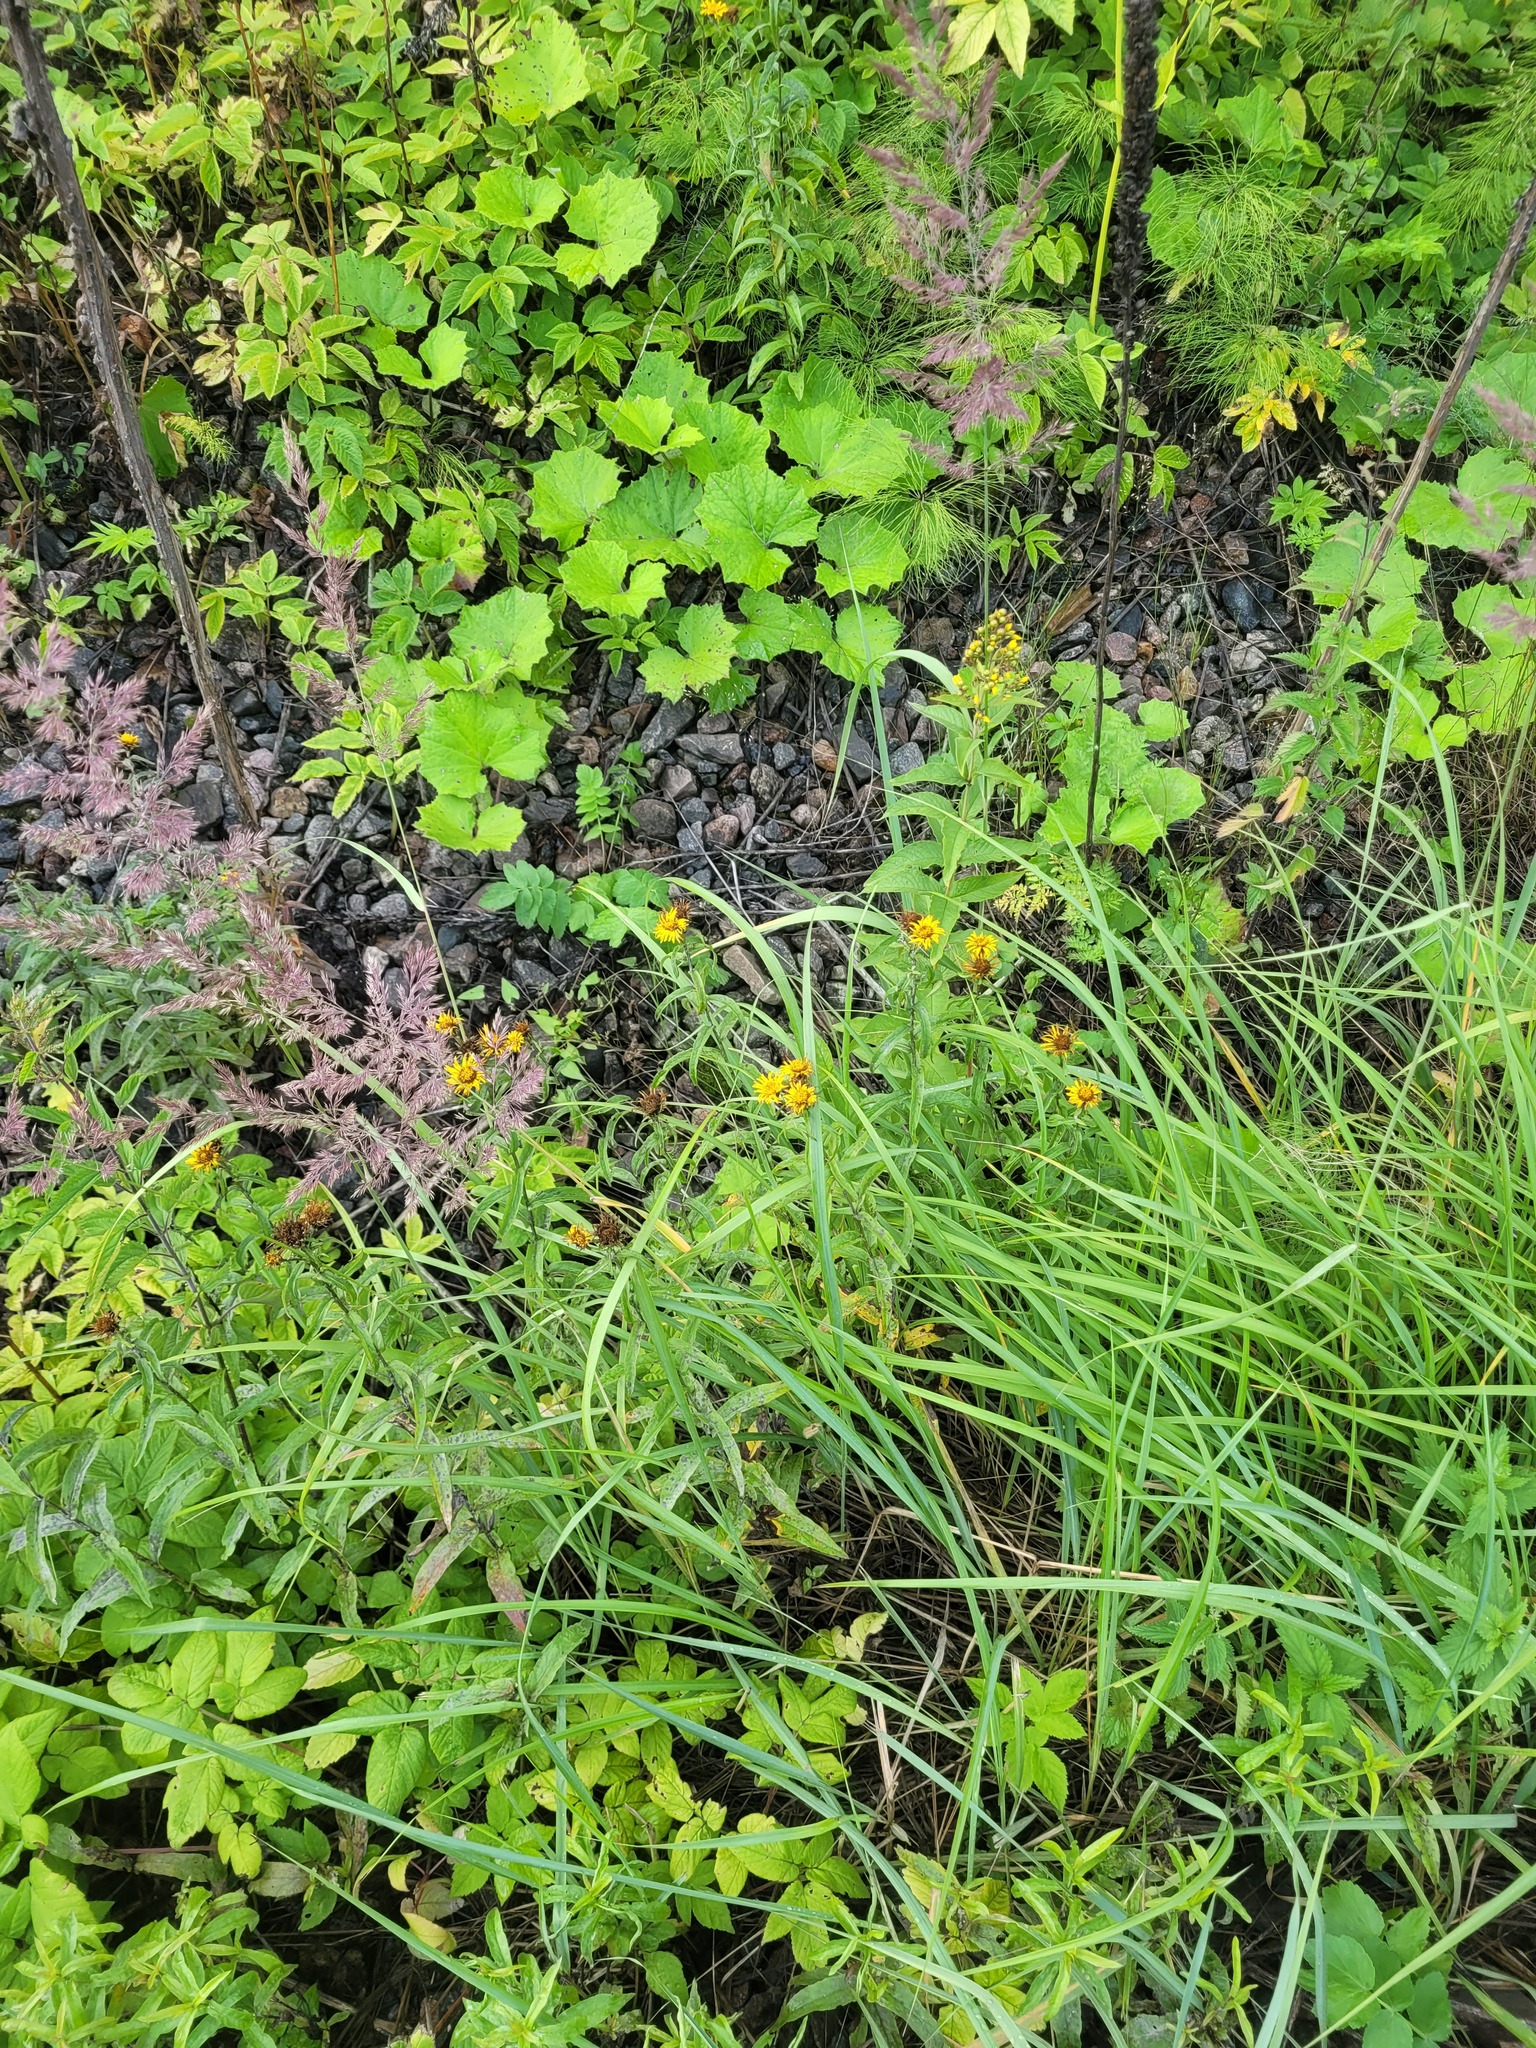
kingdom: Plantae
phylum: Tracheophyta
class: Magnoliopsida
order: Asterales
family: Asteraceae
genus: Pentanema
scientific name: Pentanema salicinum
